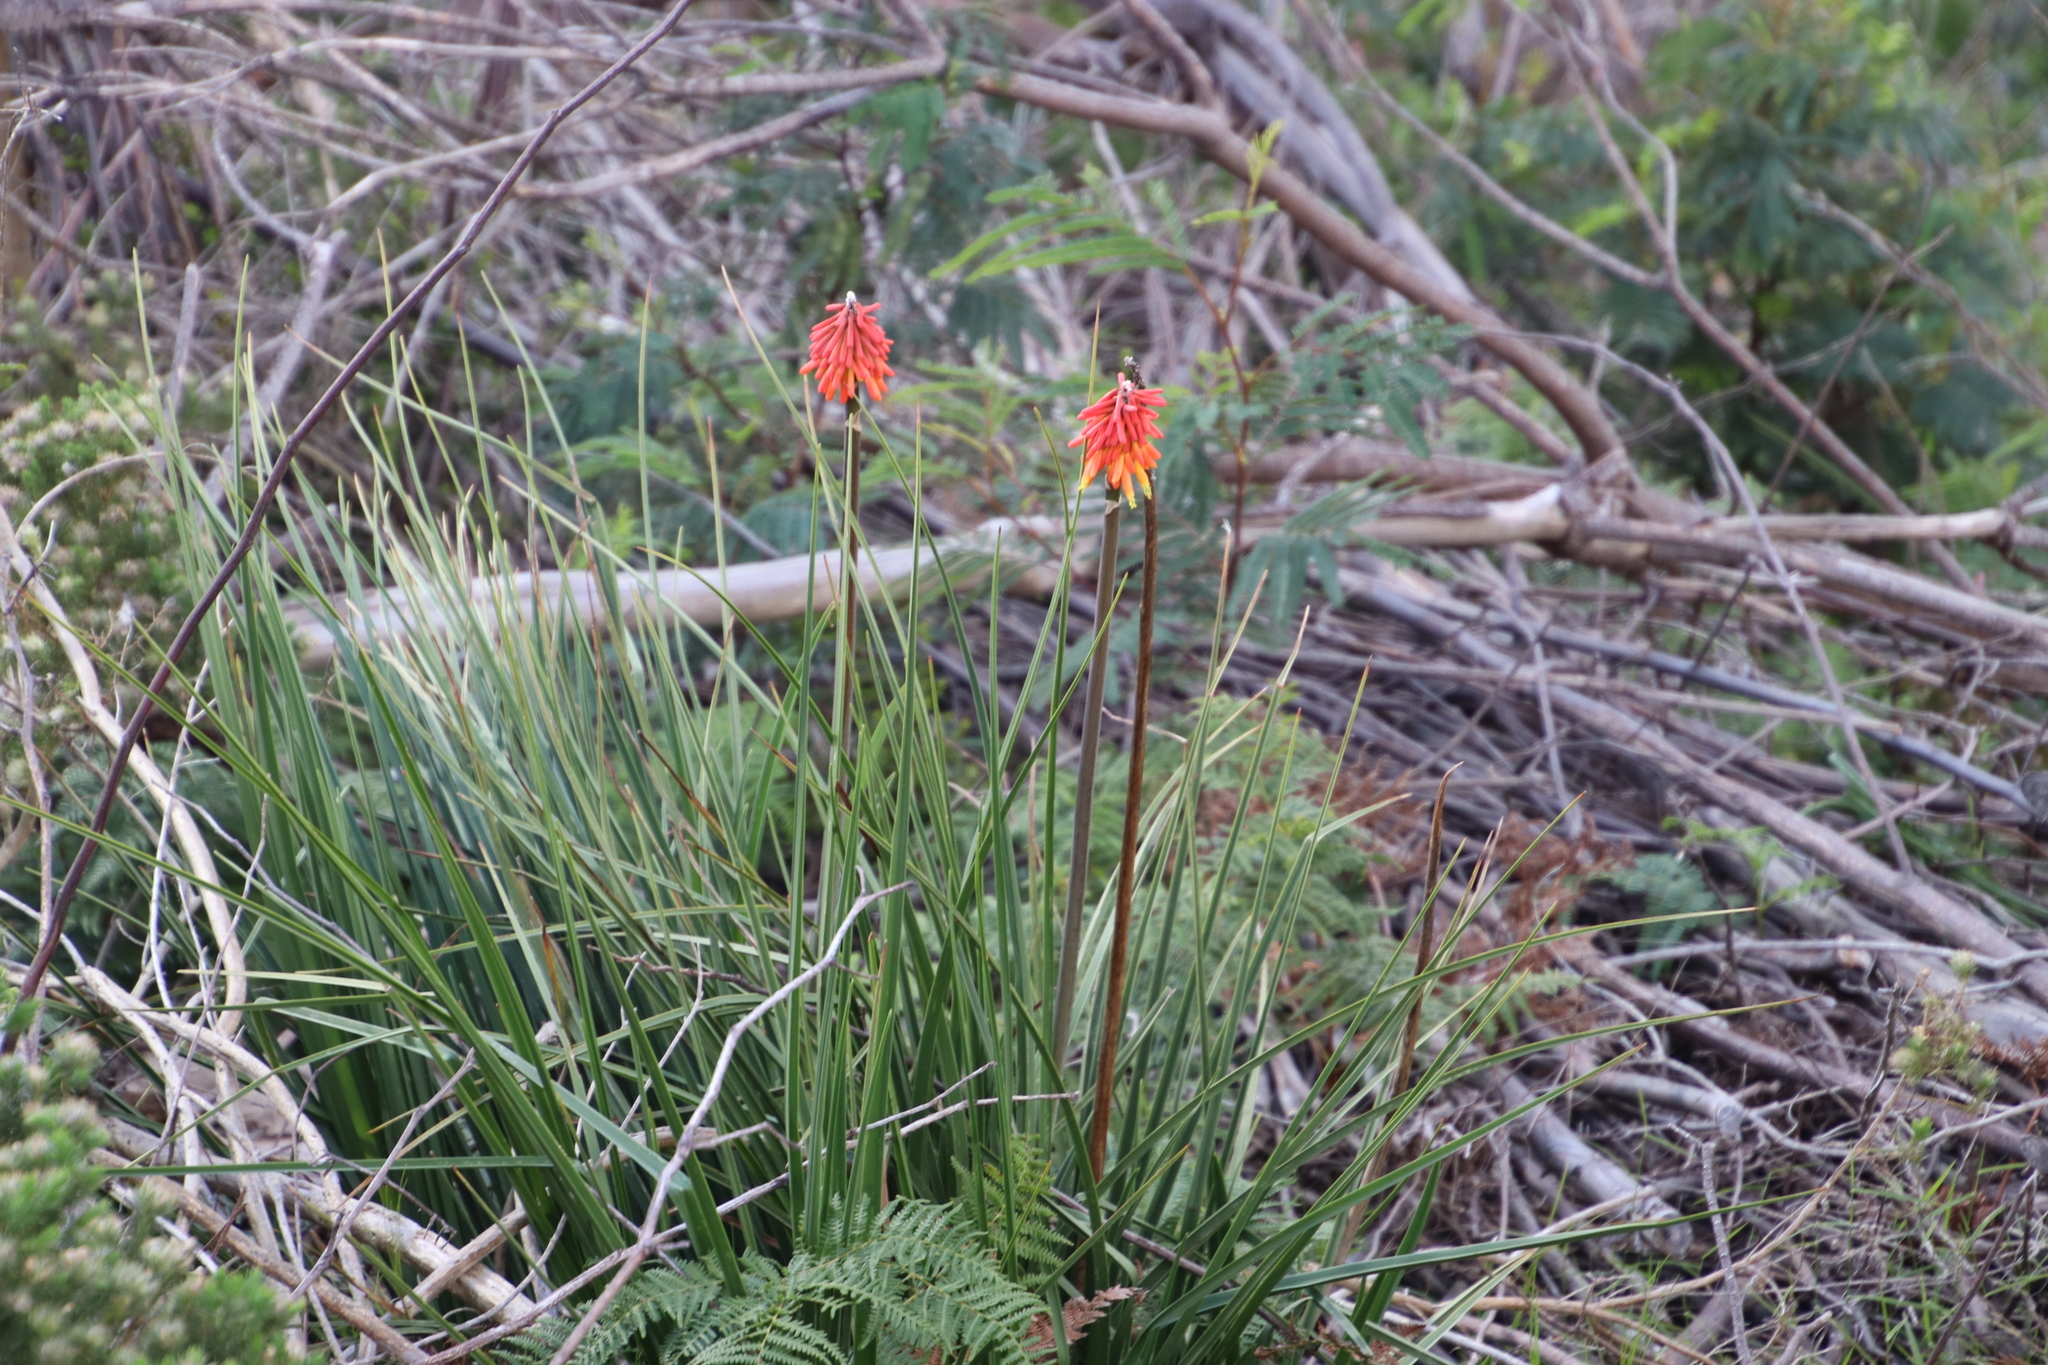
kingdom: Plantae
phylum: Tracheophyta
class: Liliopsida
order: Asparagales
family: Asphodelaceae
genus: Kniphofia
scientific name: Kniphofia uvaria
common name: Red-hot-poker
